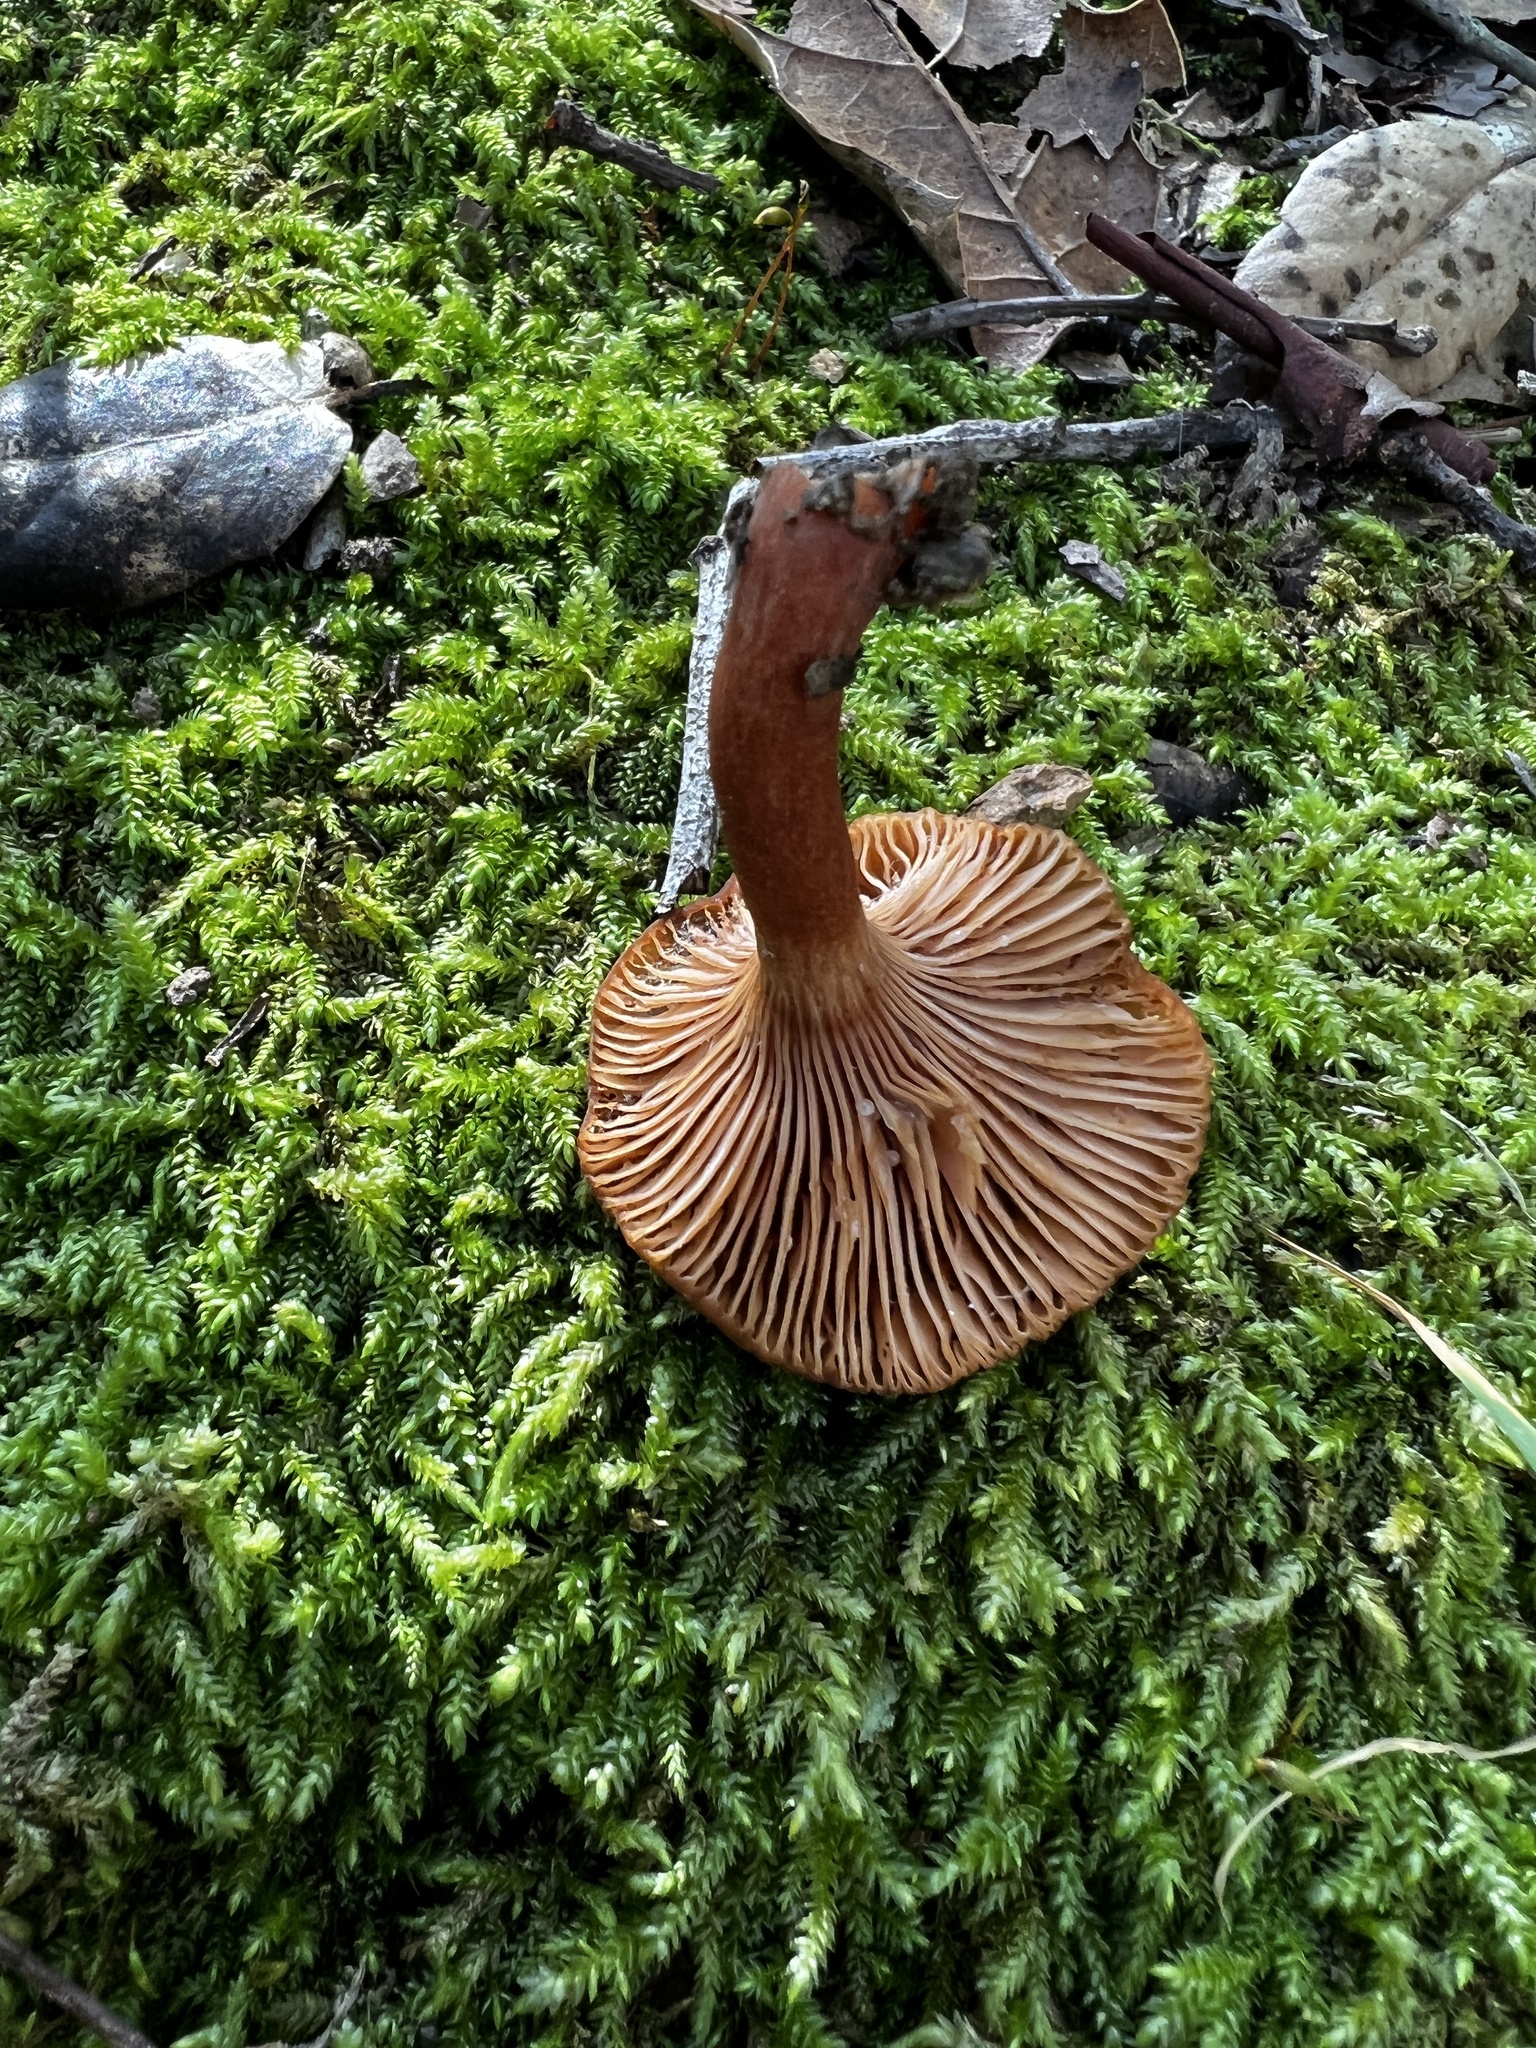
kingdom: Fungi
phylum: Basidiomycota
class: Agaricomycetes
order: Russulales
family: Russulaceae
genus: Lactarius
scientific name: Lactarius rubidus
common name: Candy cap
